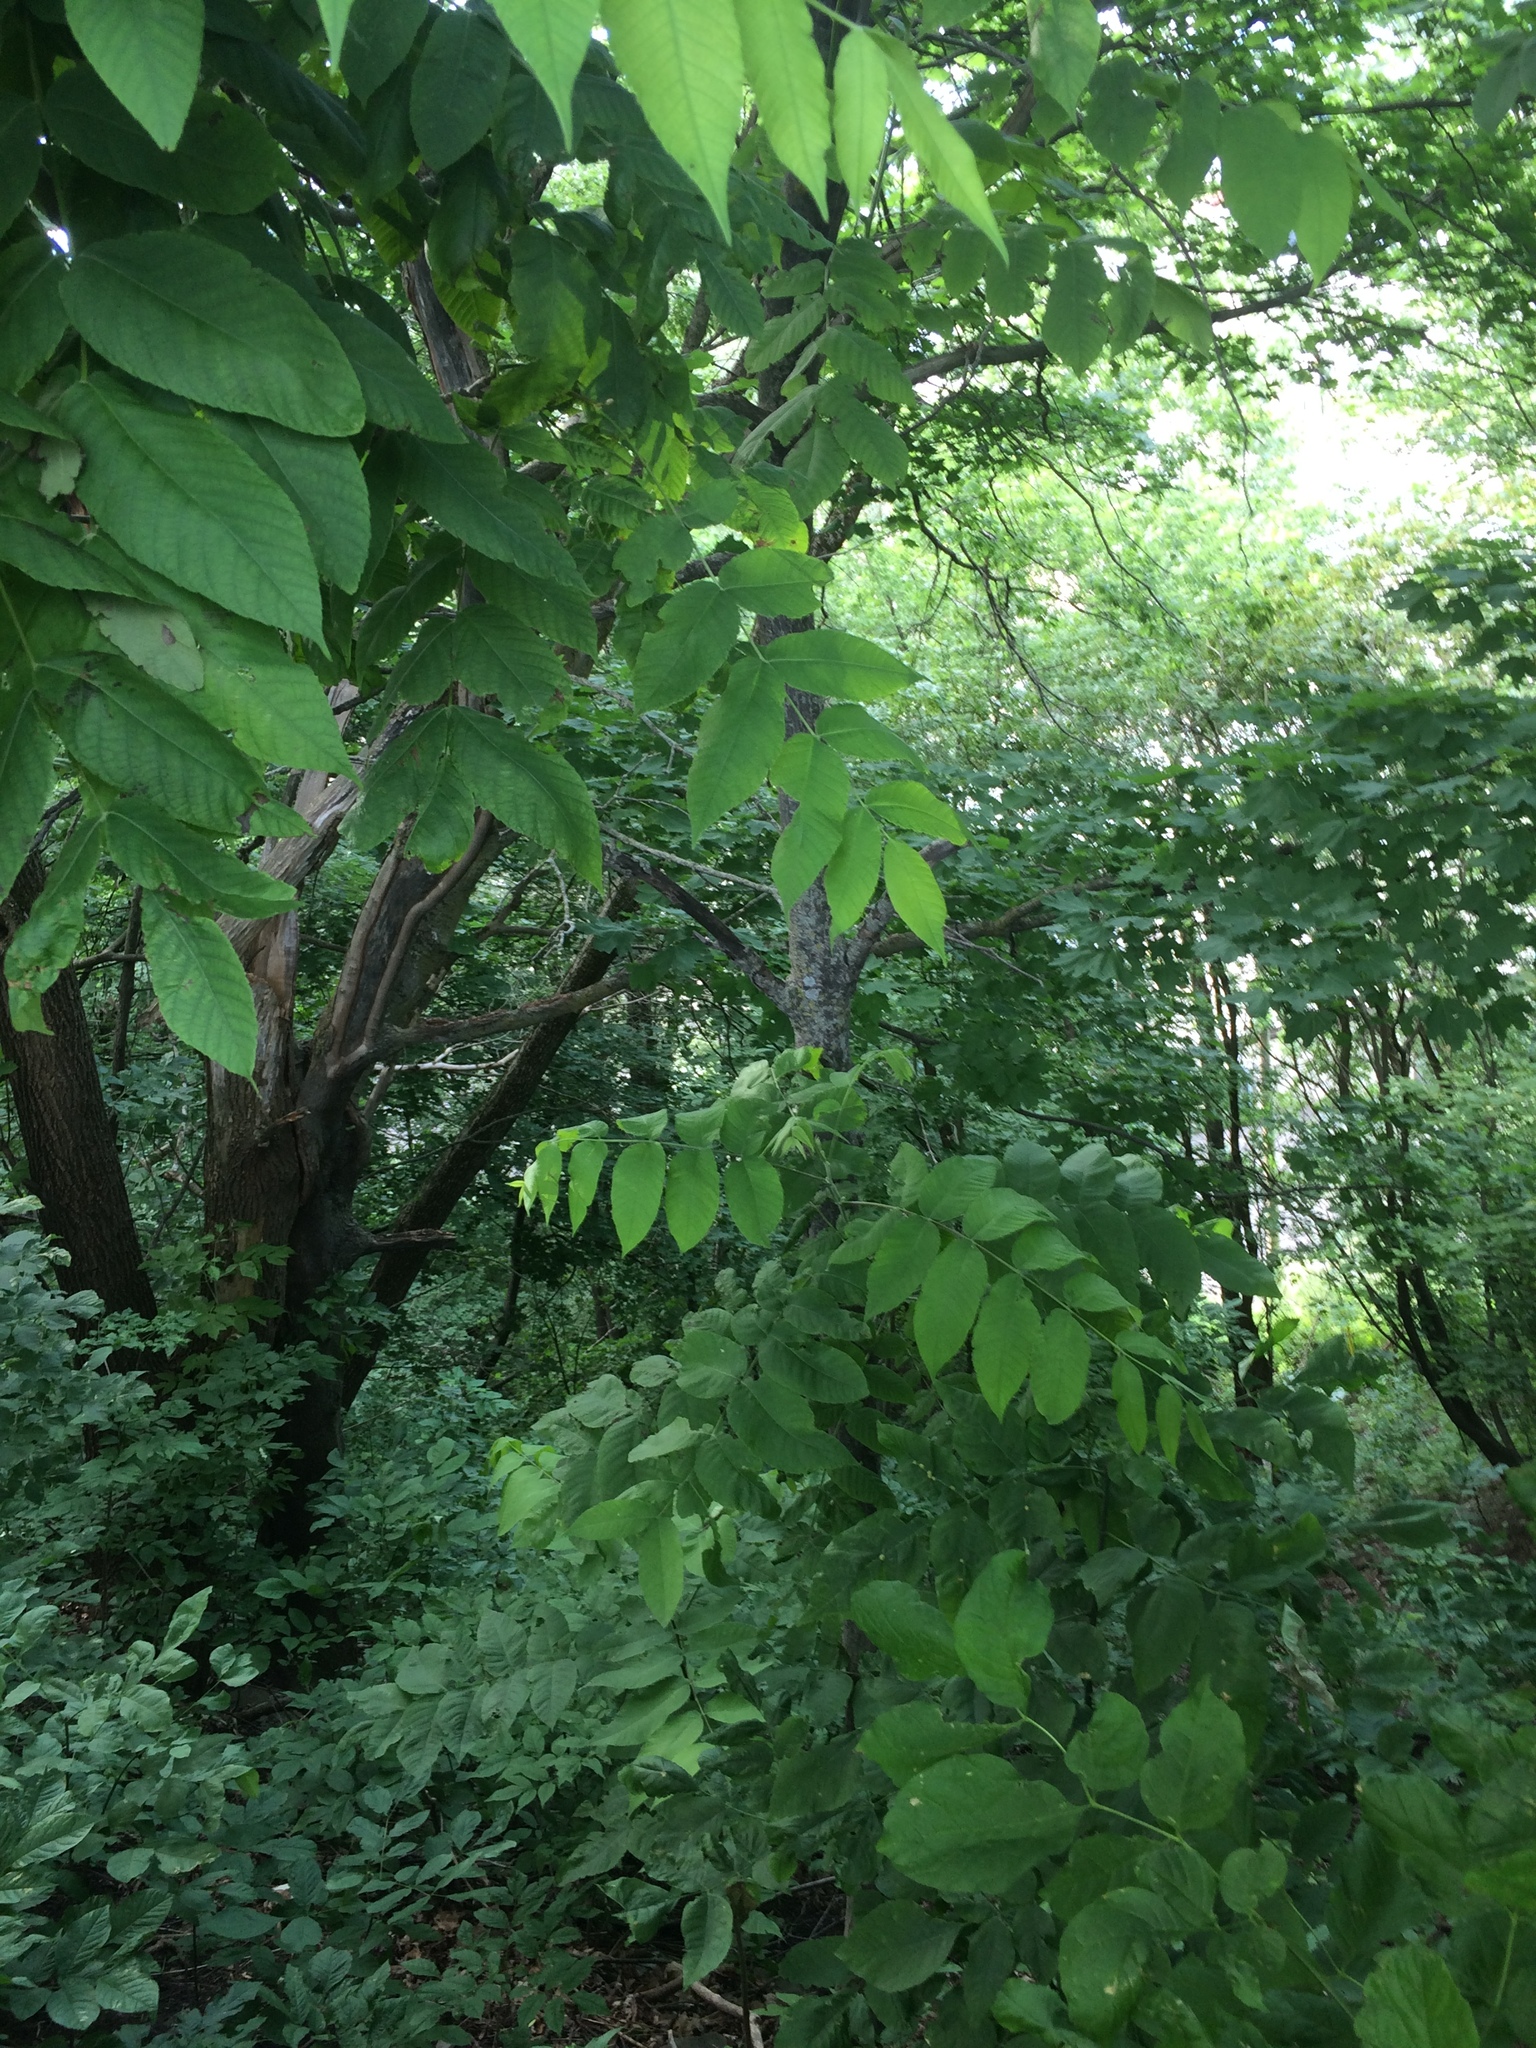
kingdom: Plantae
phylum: Tracheophyta
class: Magnoliopsida
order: Fagales
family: Juglandaceae
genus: Juglans
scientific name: Juglans cinerea
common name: Butternut
